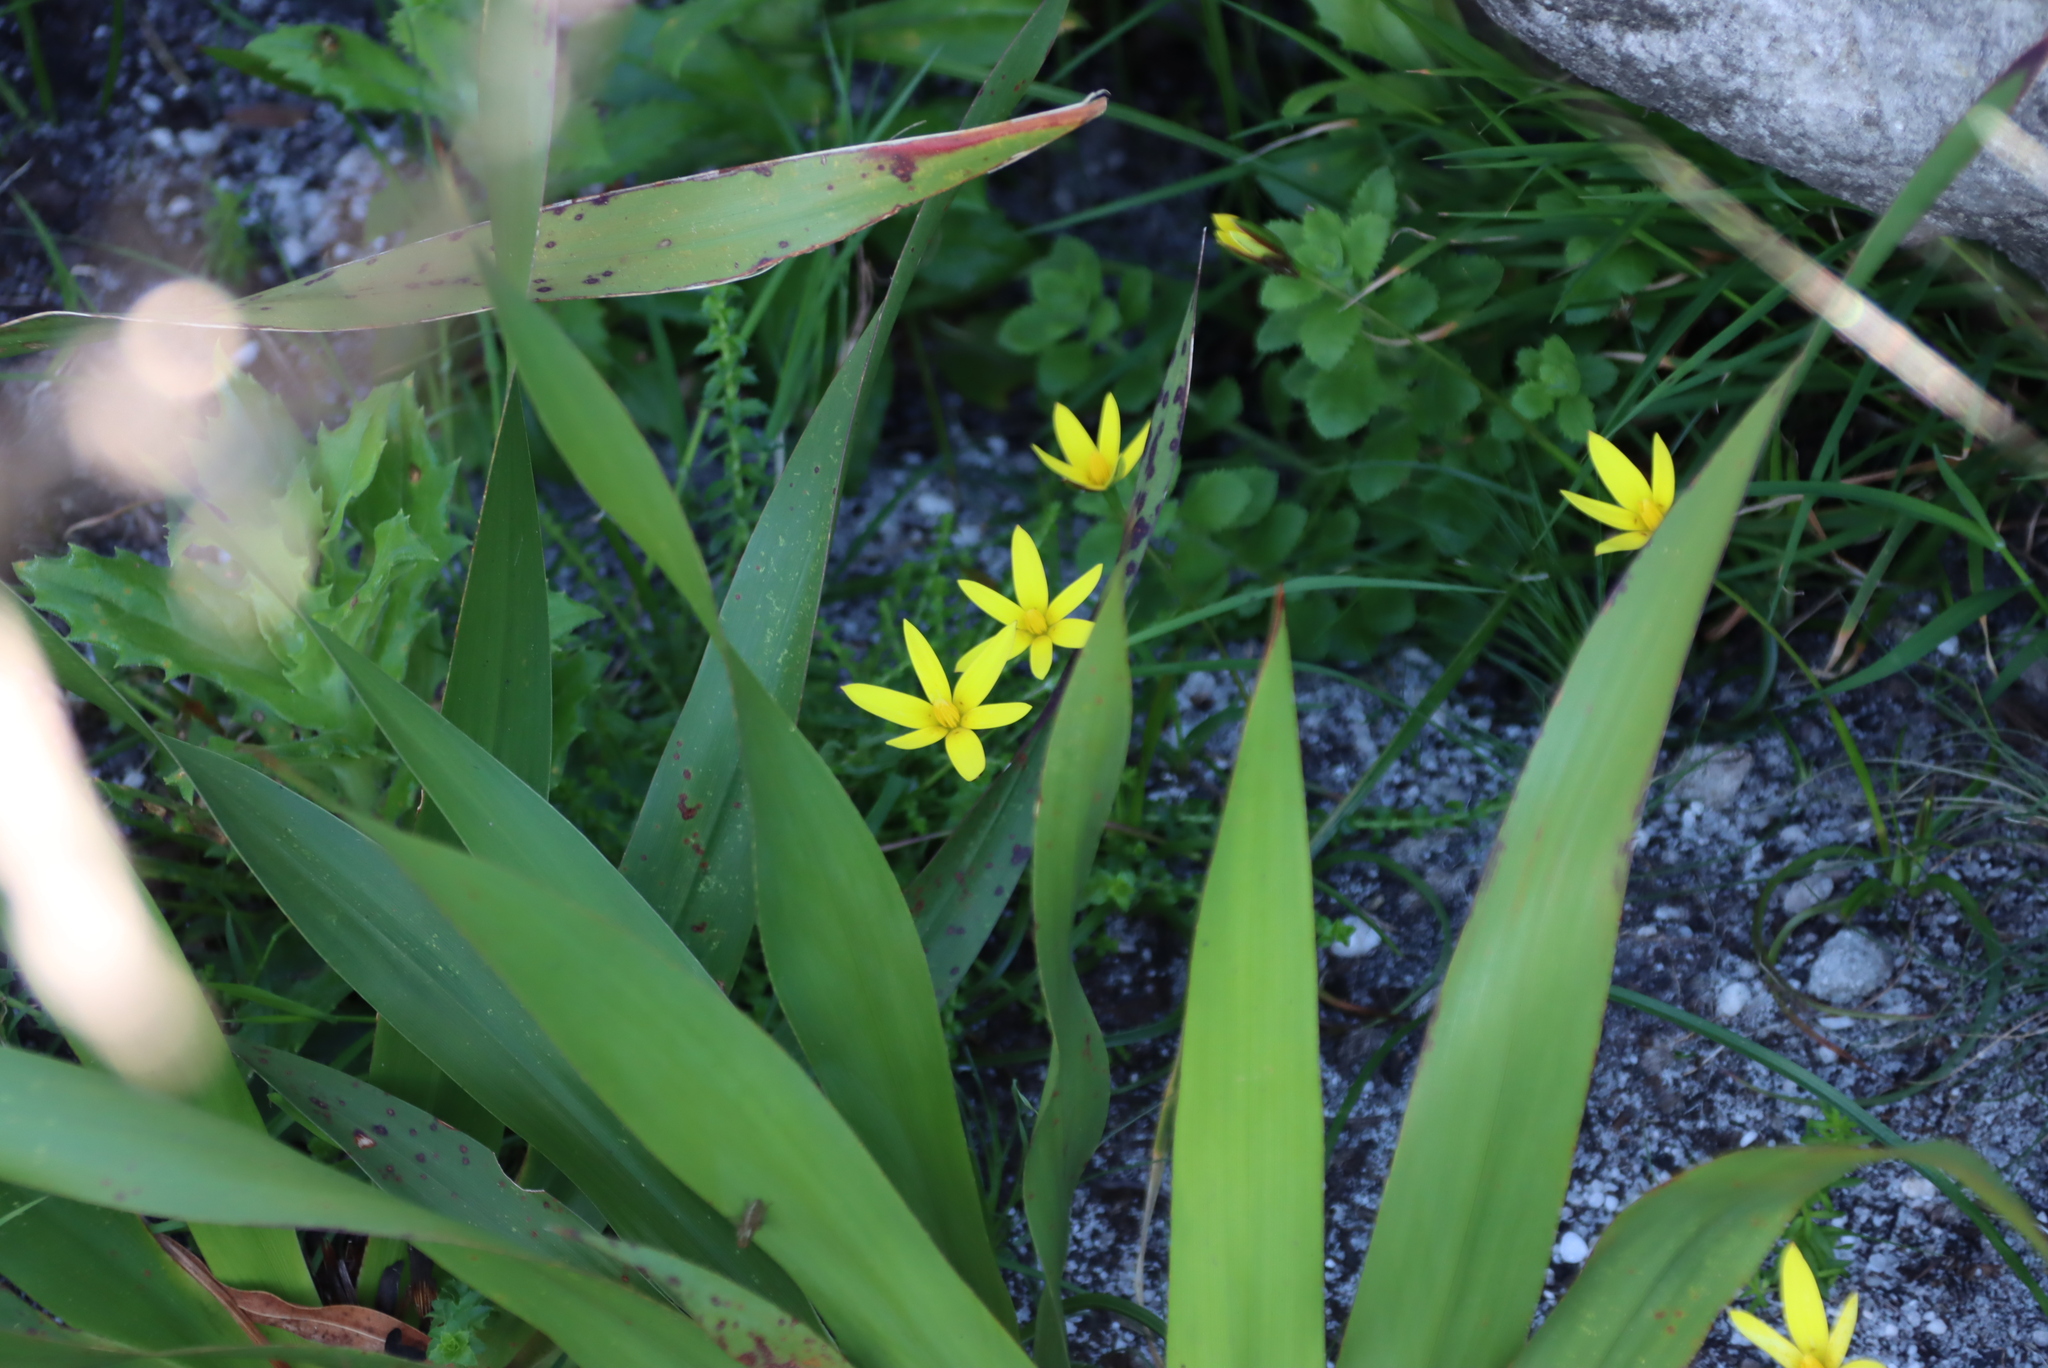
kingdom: Plantae
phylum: Tracheophyta
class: Liliopsida
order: Asparagales
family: Hypoxidaceae
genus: Pauridia
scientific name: Pauridia capensis
